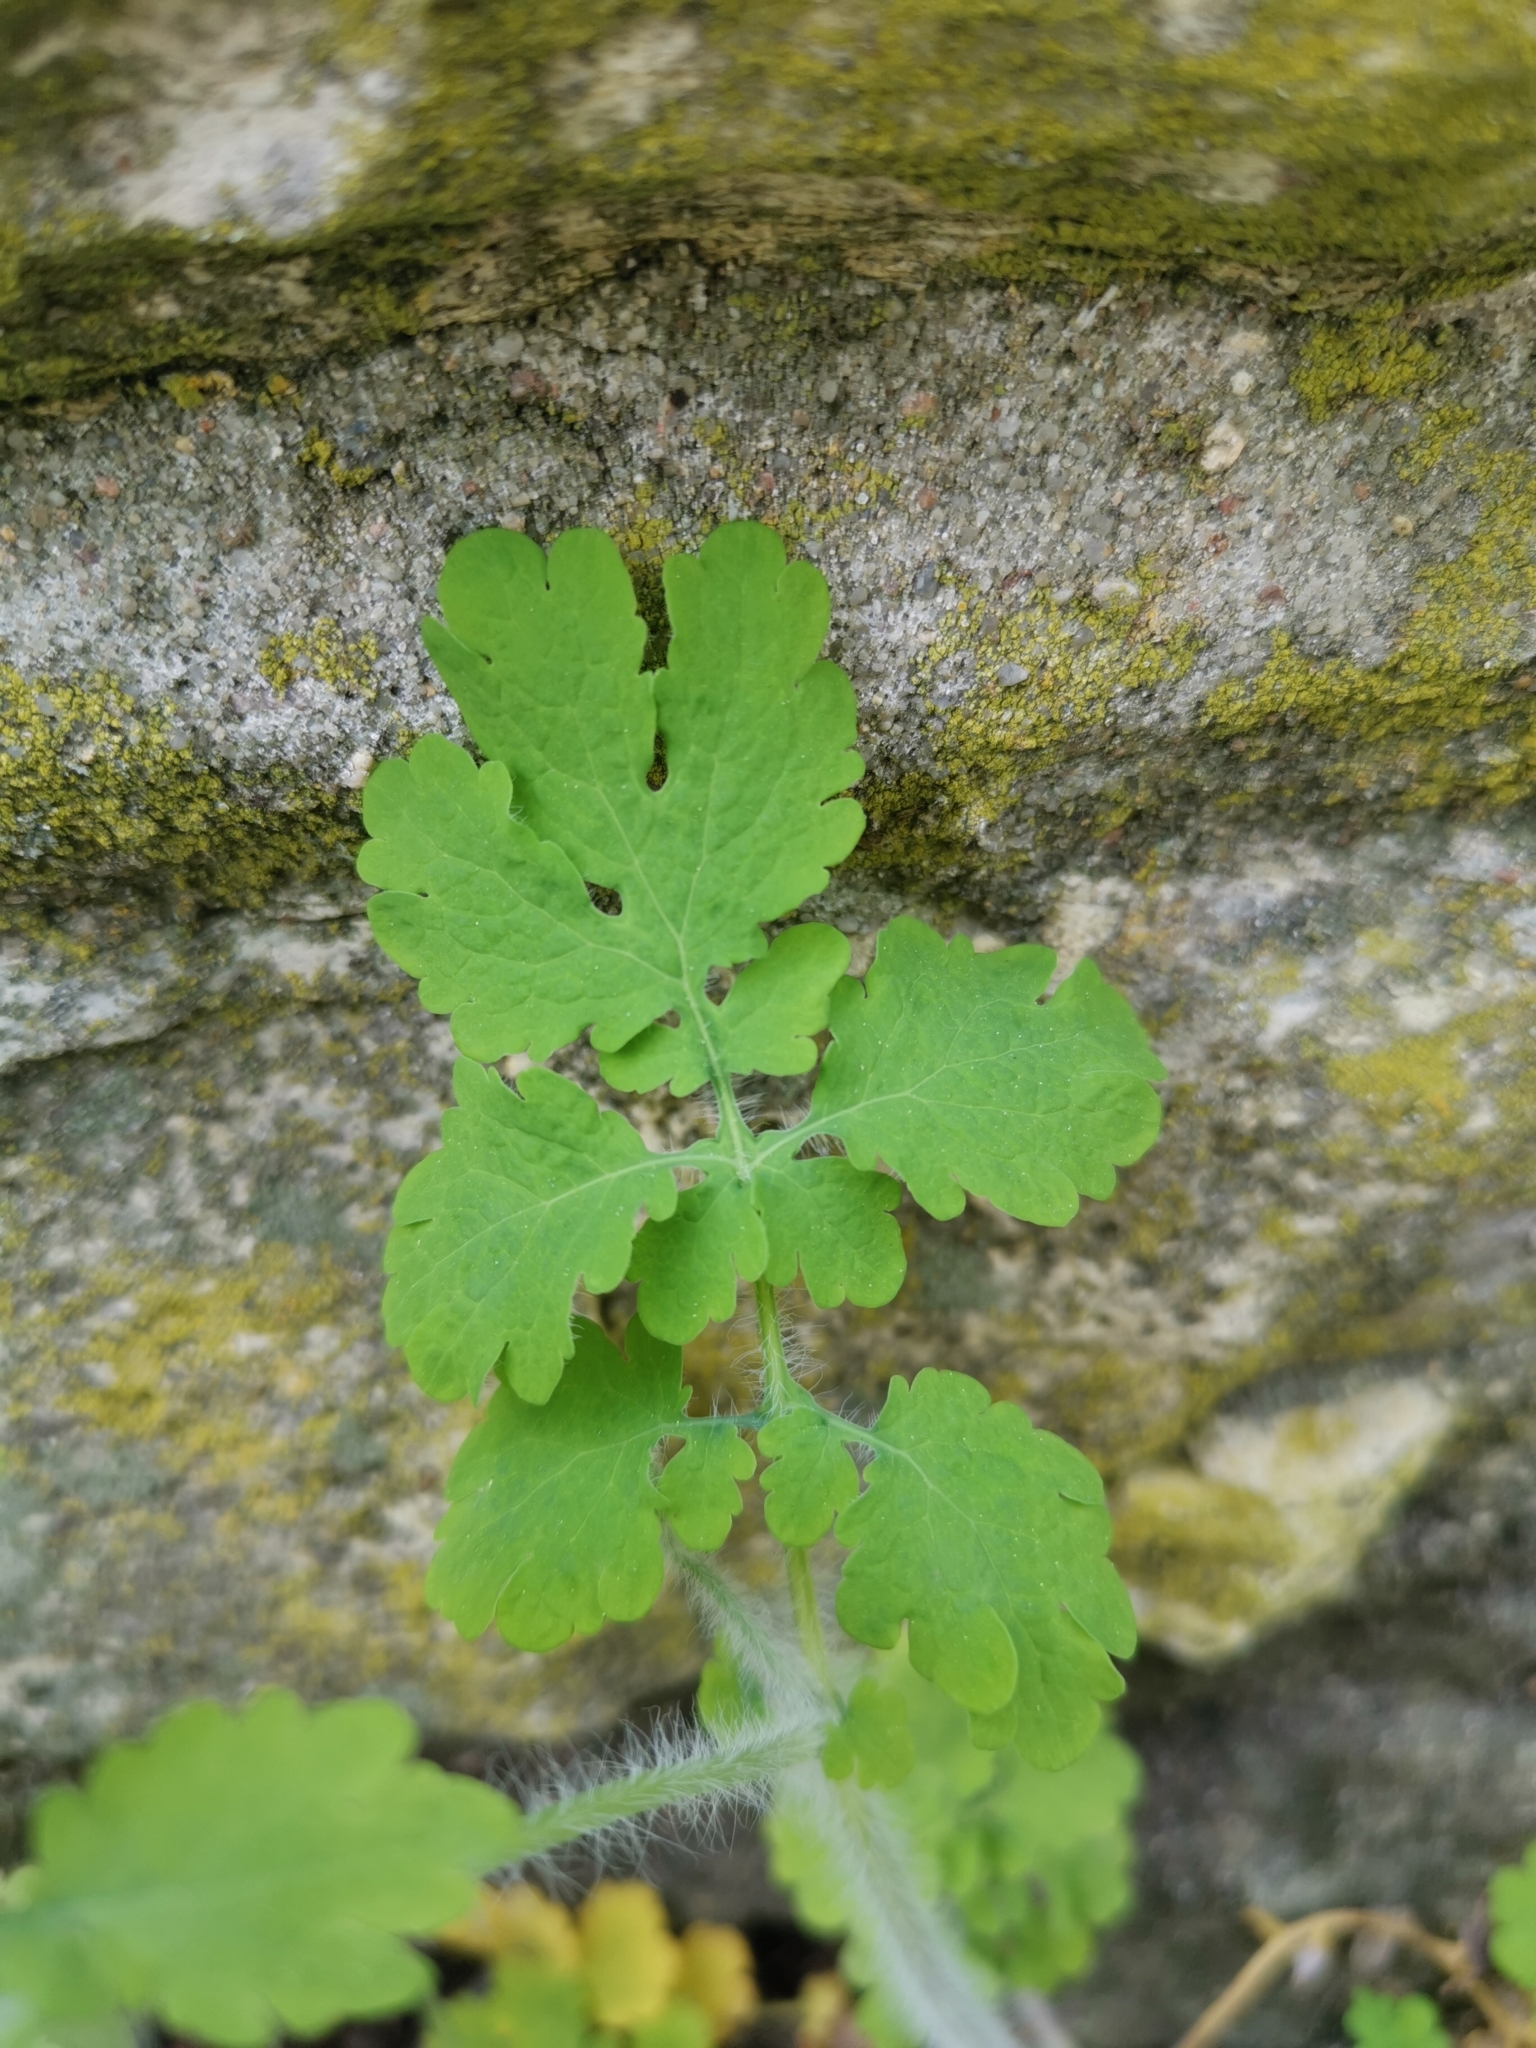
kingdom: Plantae
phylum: Tracheophyta
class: Magnoliopsida
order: Ranunculales
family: Papaveraceae
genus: Chelidonium
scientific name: Chelidonium majus
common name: Greater celandine
